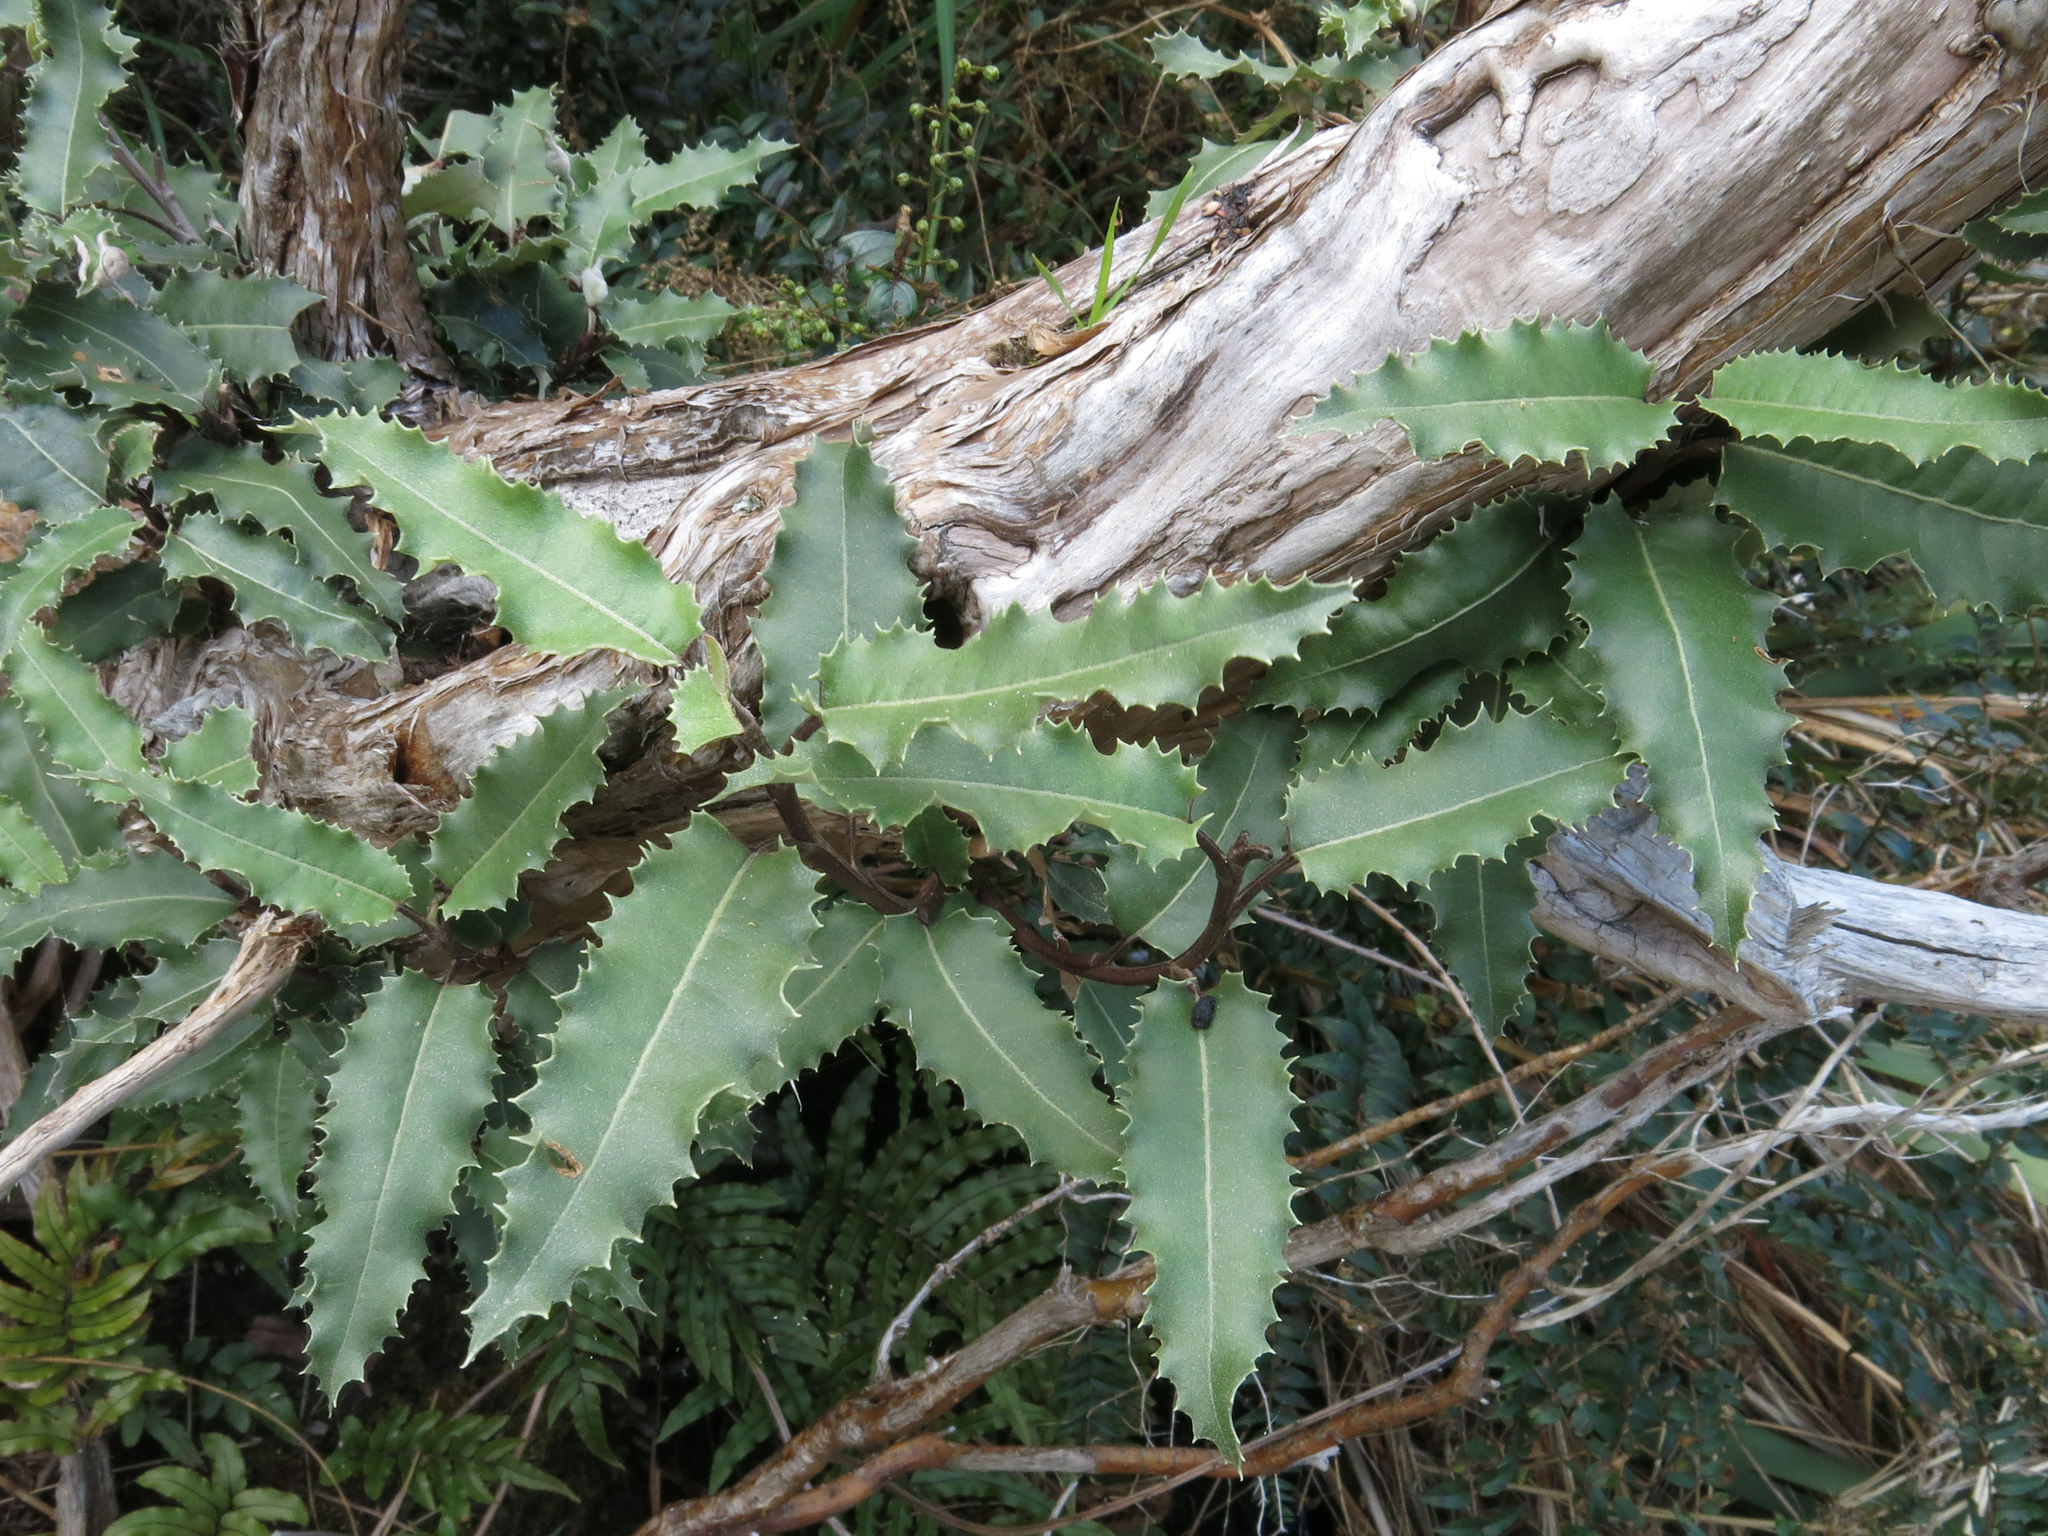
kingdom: Plantae
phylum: Tracheophyta
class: Magnoliopsida
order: Asterales
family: Asteraceae
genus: Olearia
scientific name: Olearia ilicifolia
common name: Maori-holly
